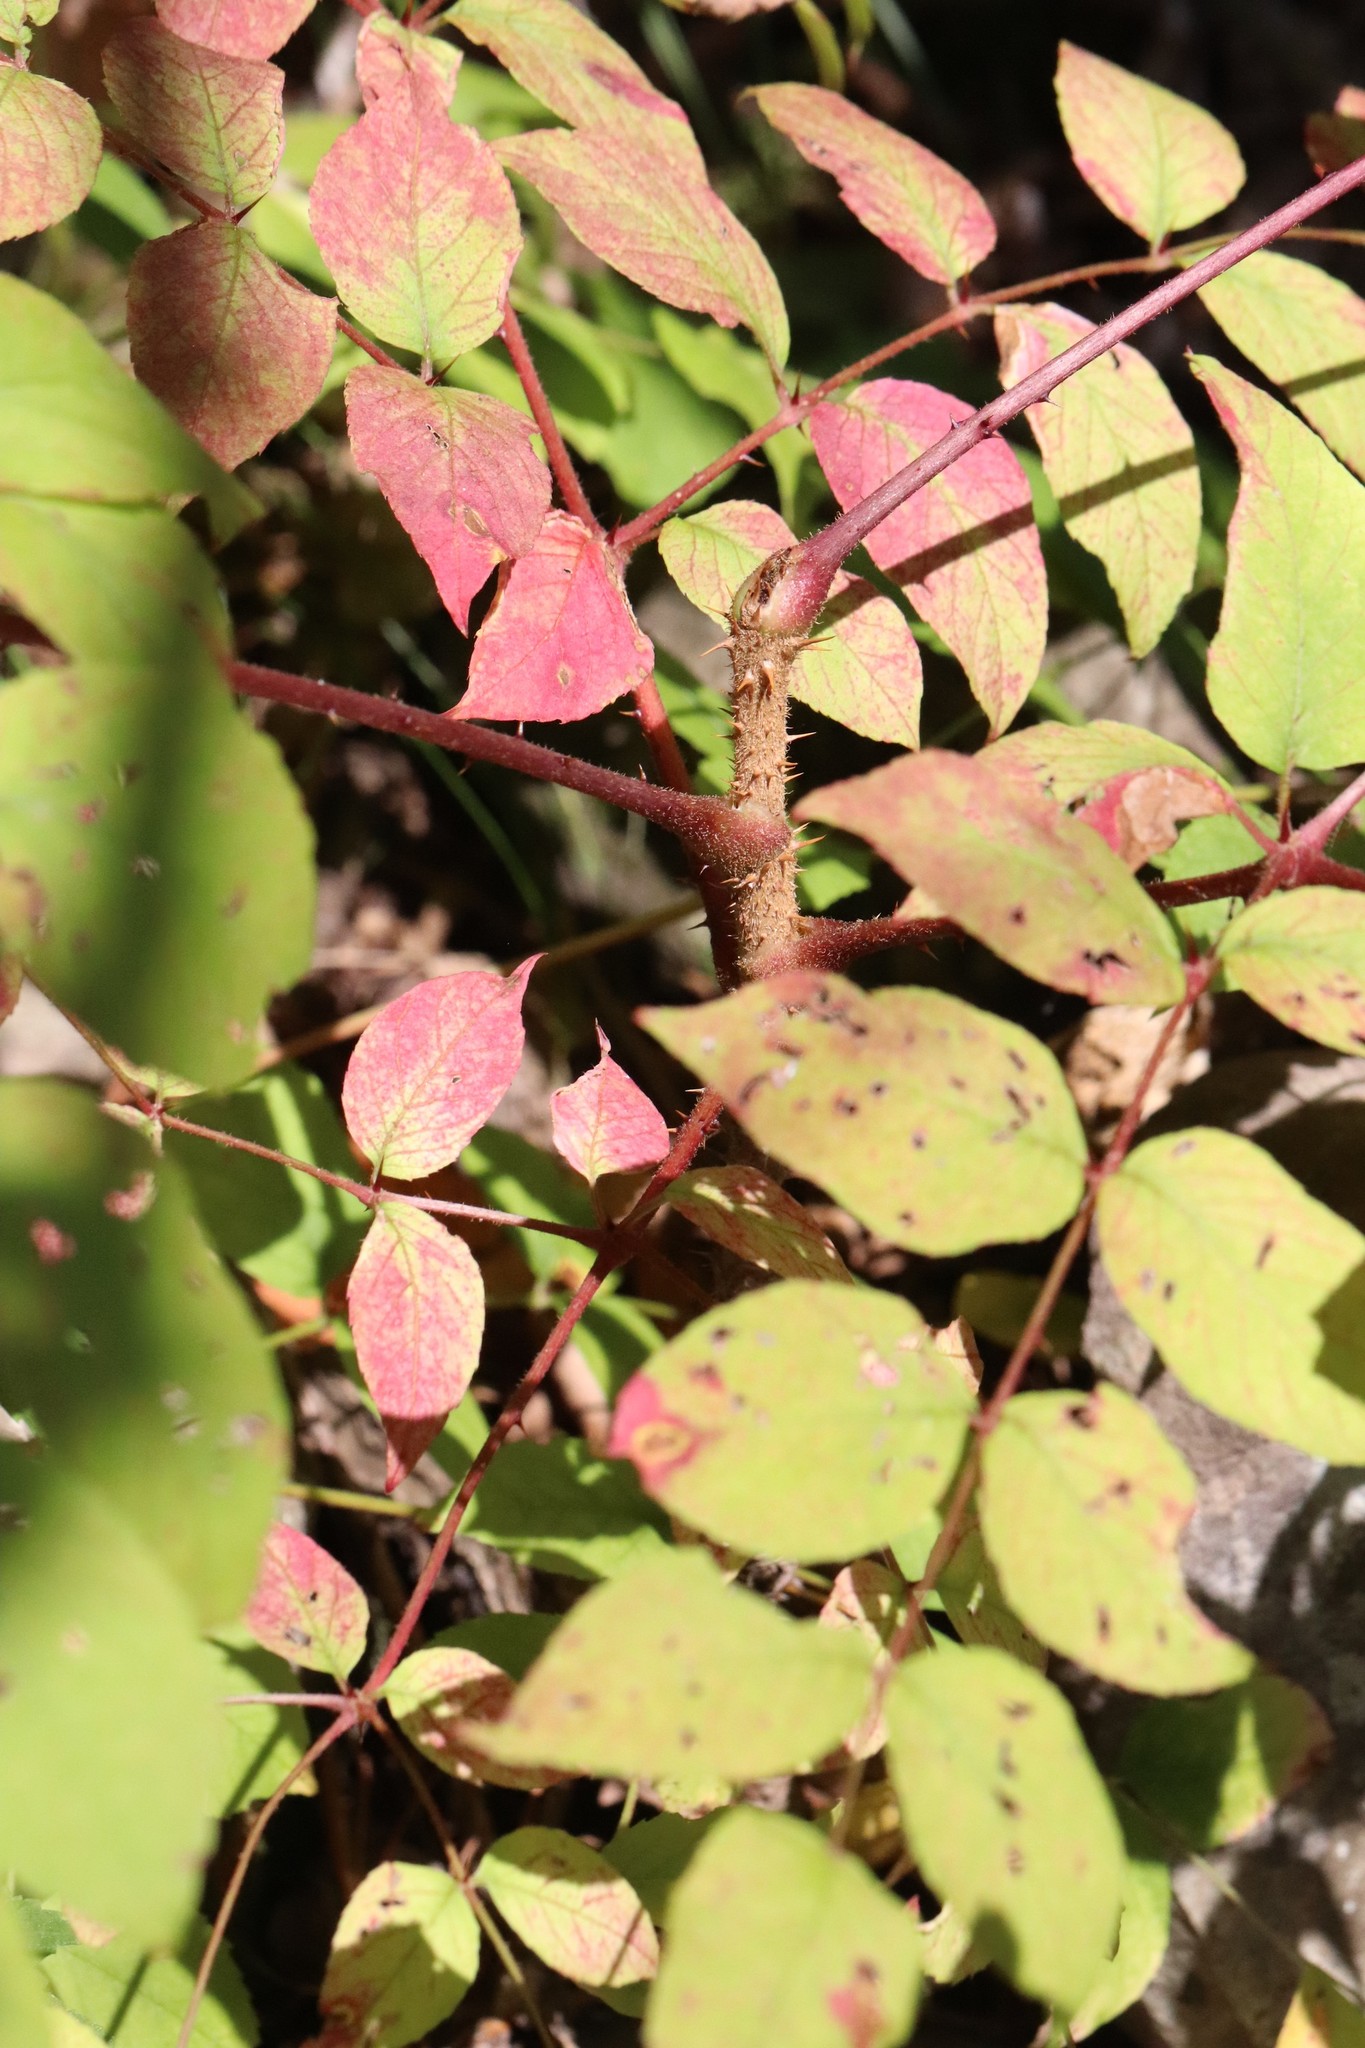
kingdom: Plantae
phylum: Tracheophyta
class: Magnoliopsida
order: Apiales
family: Araliaceae
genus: Aralia
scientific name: Aralia elata
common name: Japanese angelica-tree
